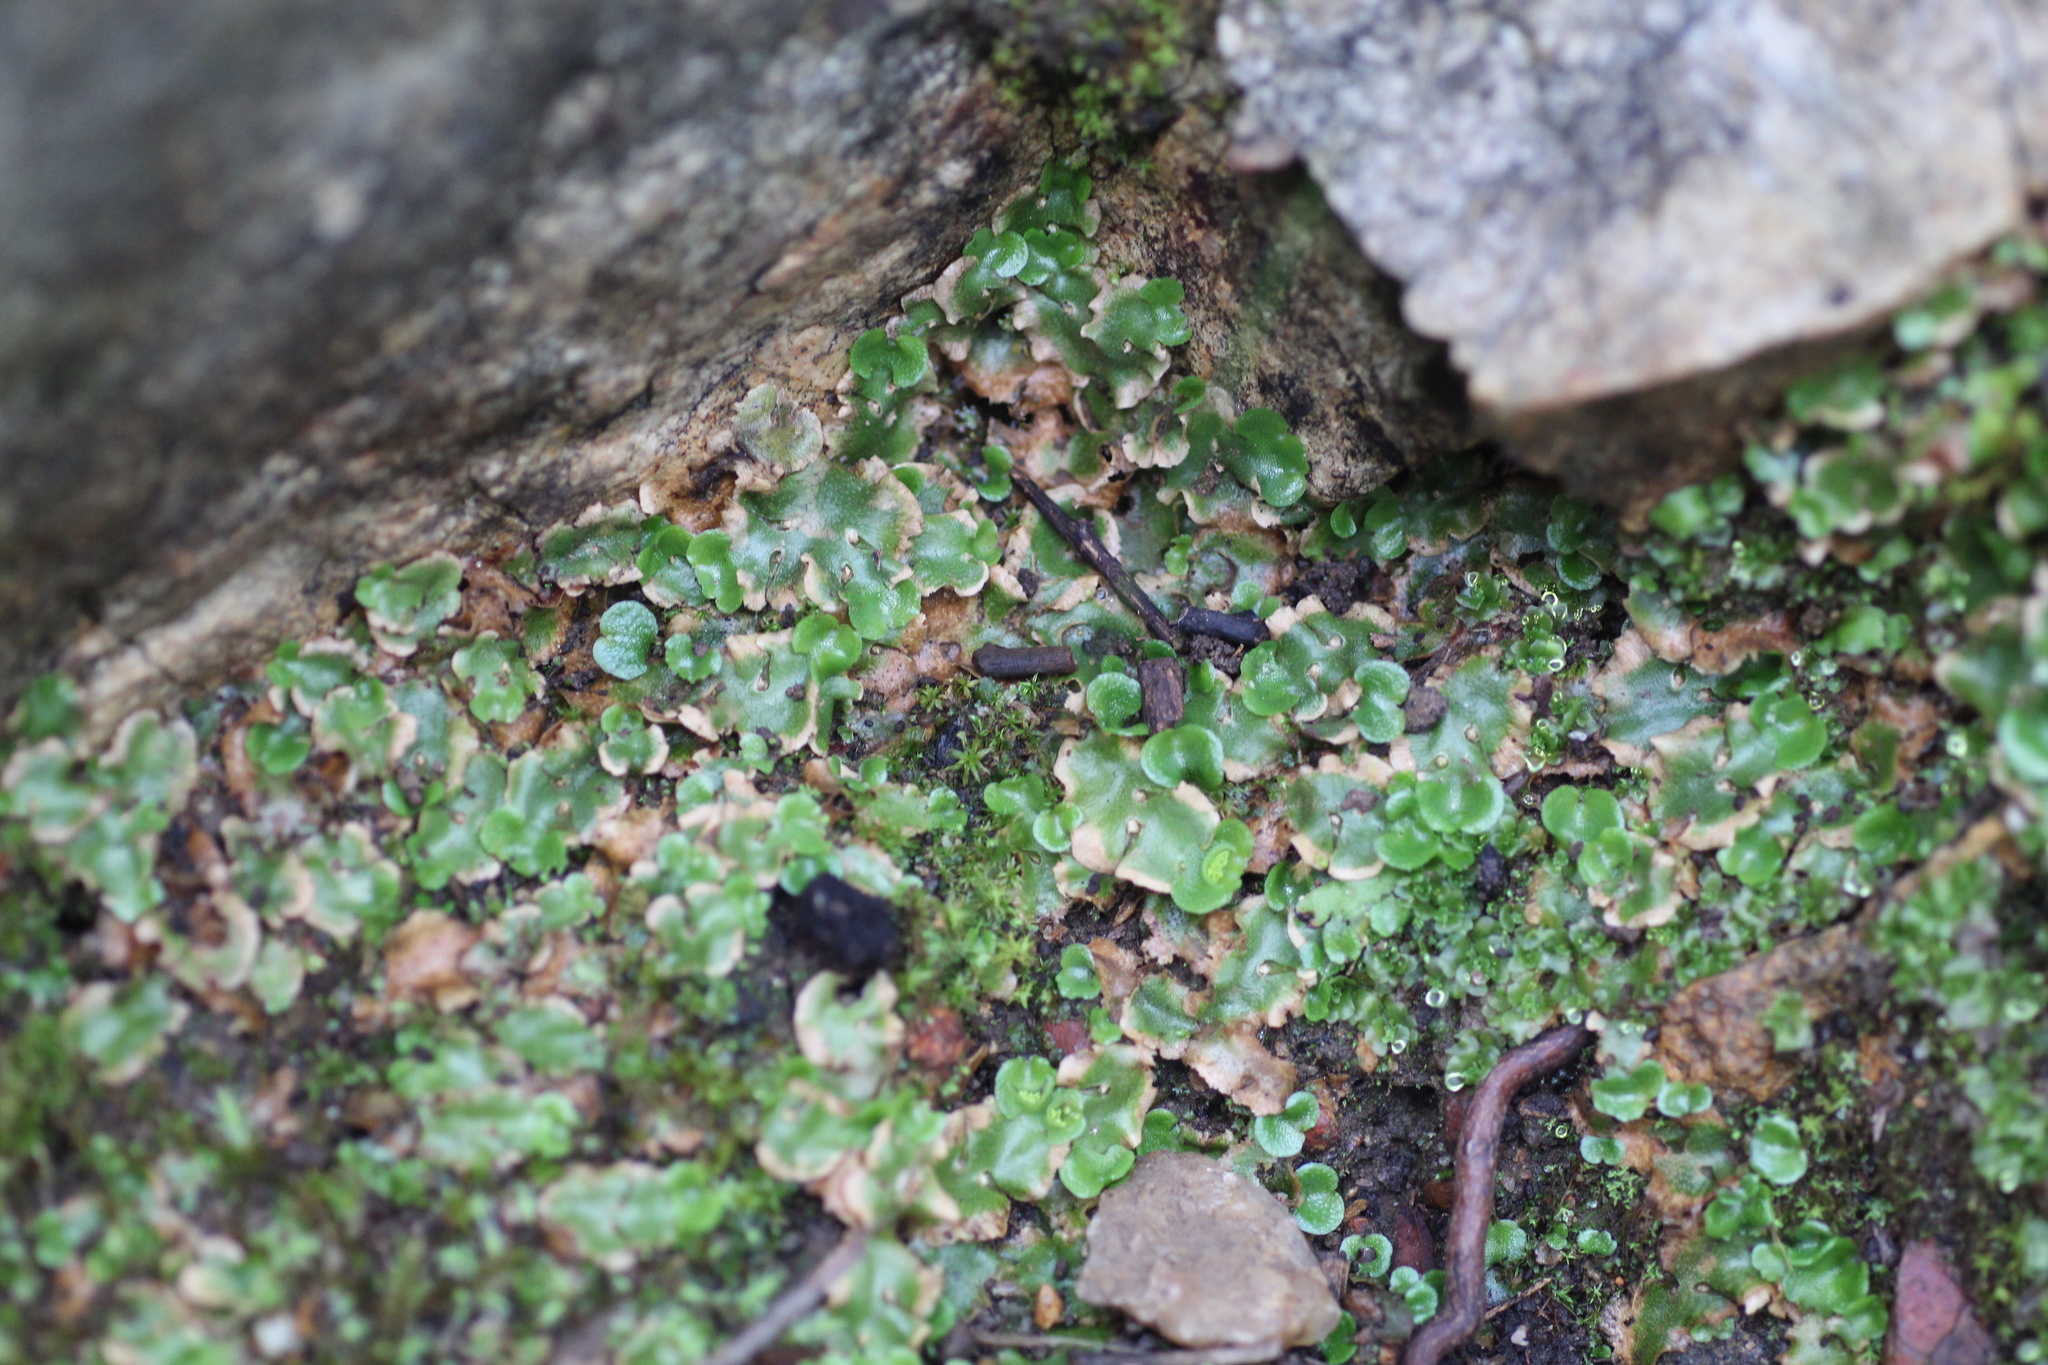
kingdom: Plantae
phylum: Marchantiophyta
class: Marchantiopsida
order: Lunulariales
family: Lunulariaceae
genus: Lunularia
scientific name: Lunularia cruciata
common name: Crescent-cup liverwort
